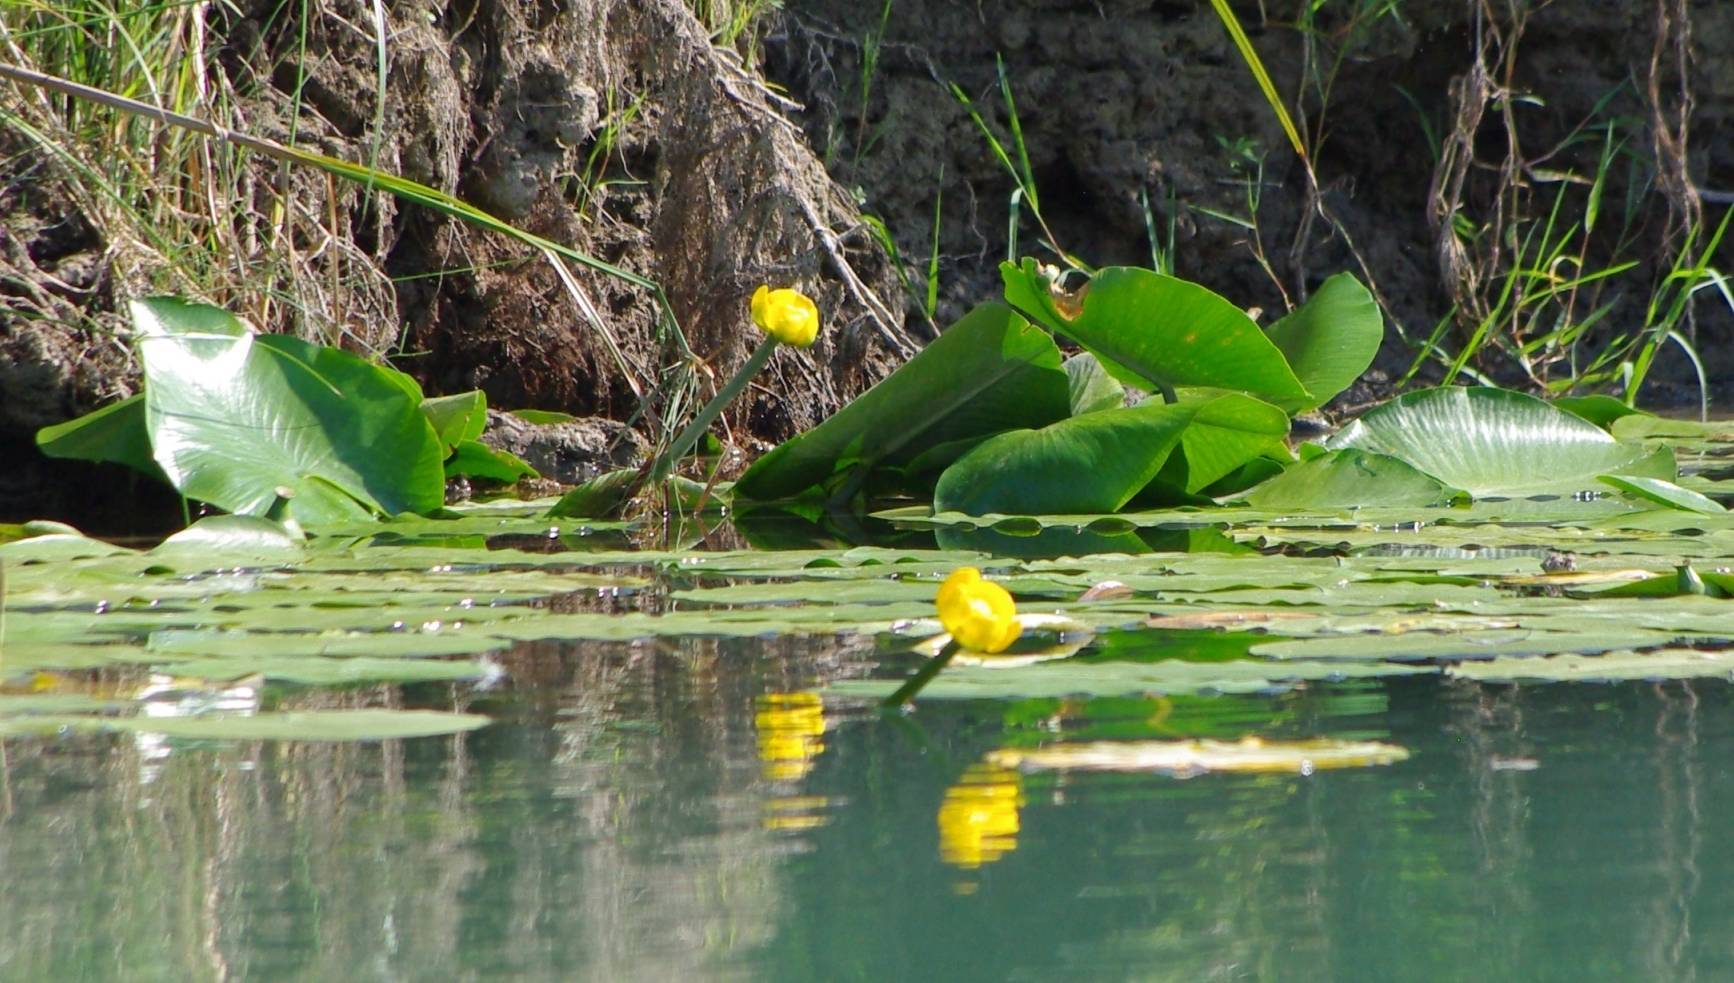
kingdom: Plantae
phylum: Tracheophyta
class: Magnoliopsida
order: Nymphaeales
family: Nymphaeaceae
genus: Nuphar
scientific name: Nuphar lutea
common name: Yellow water-lily
